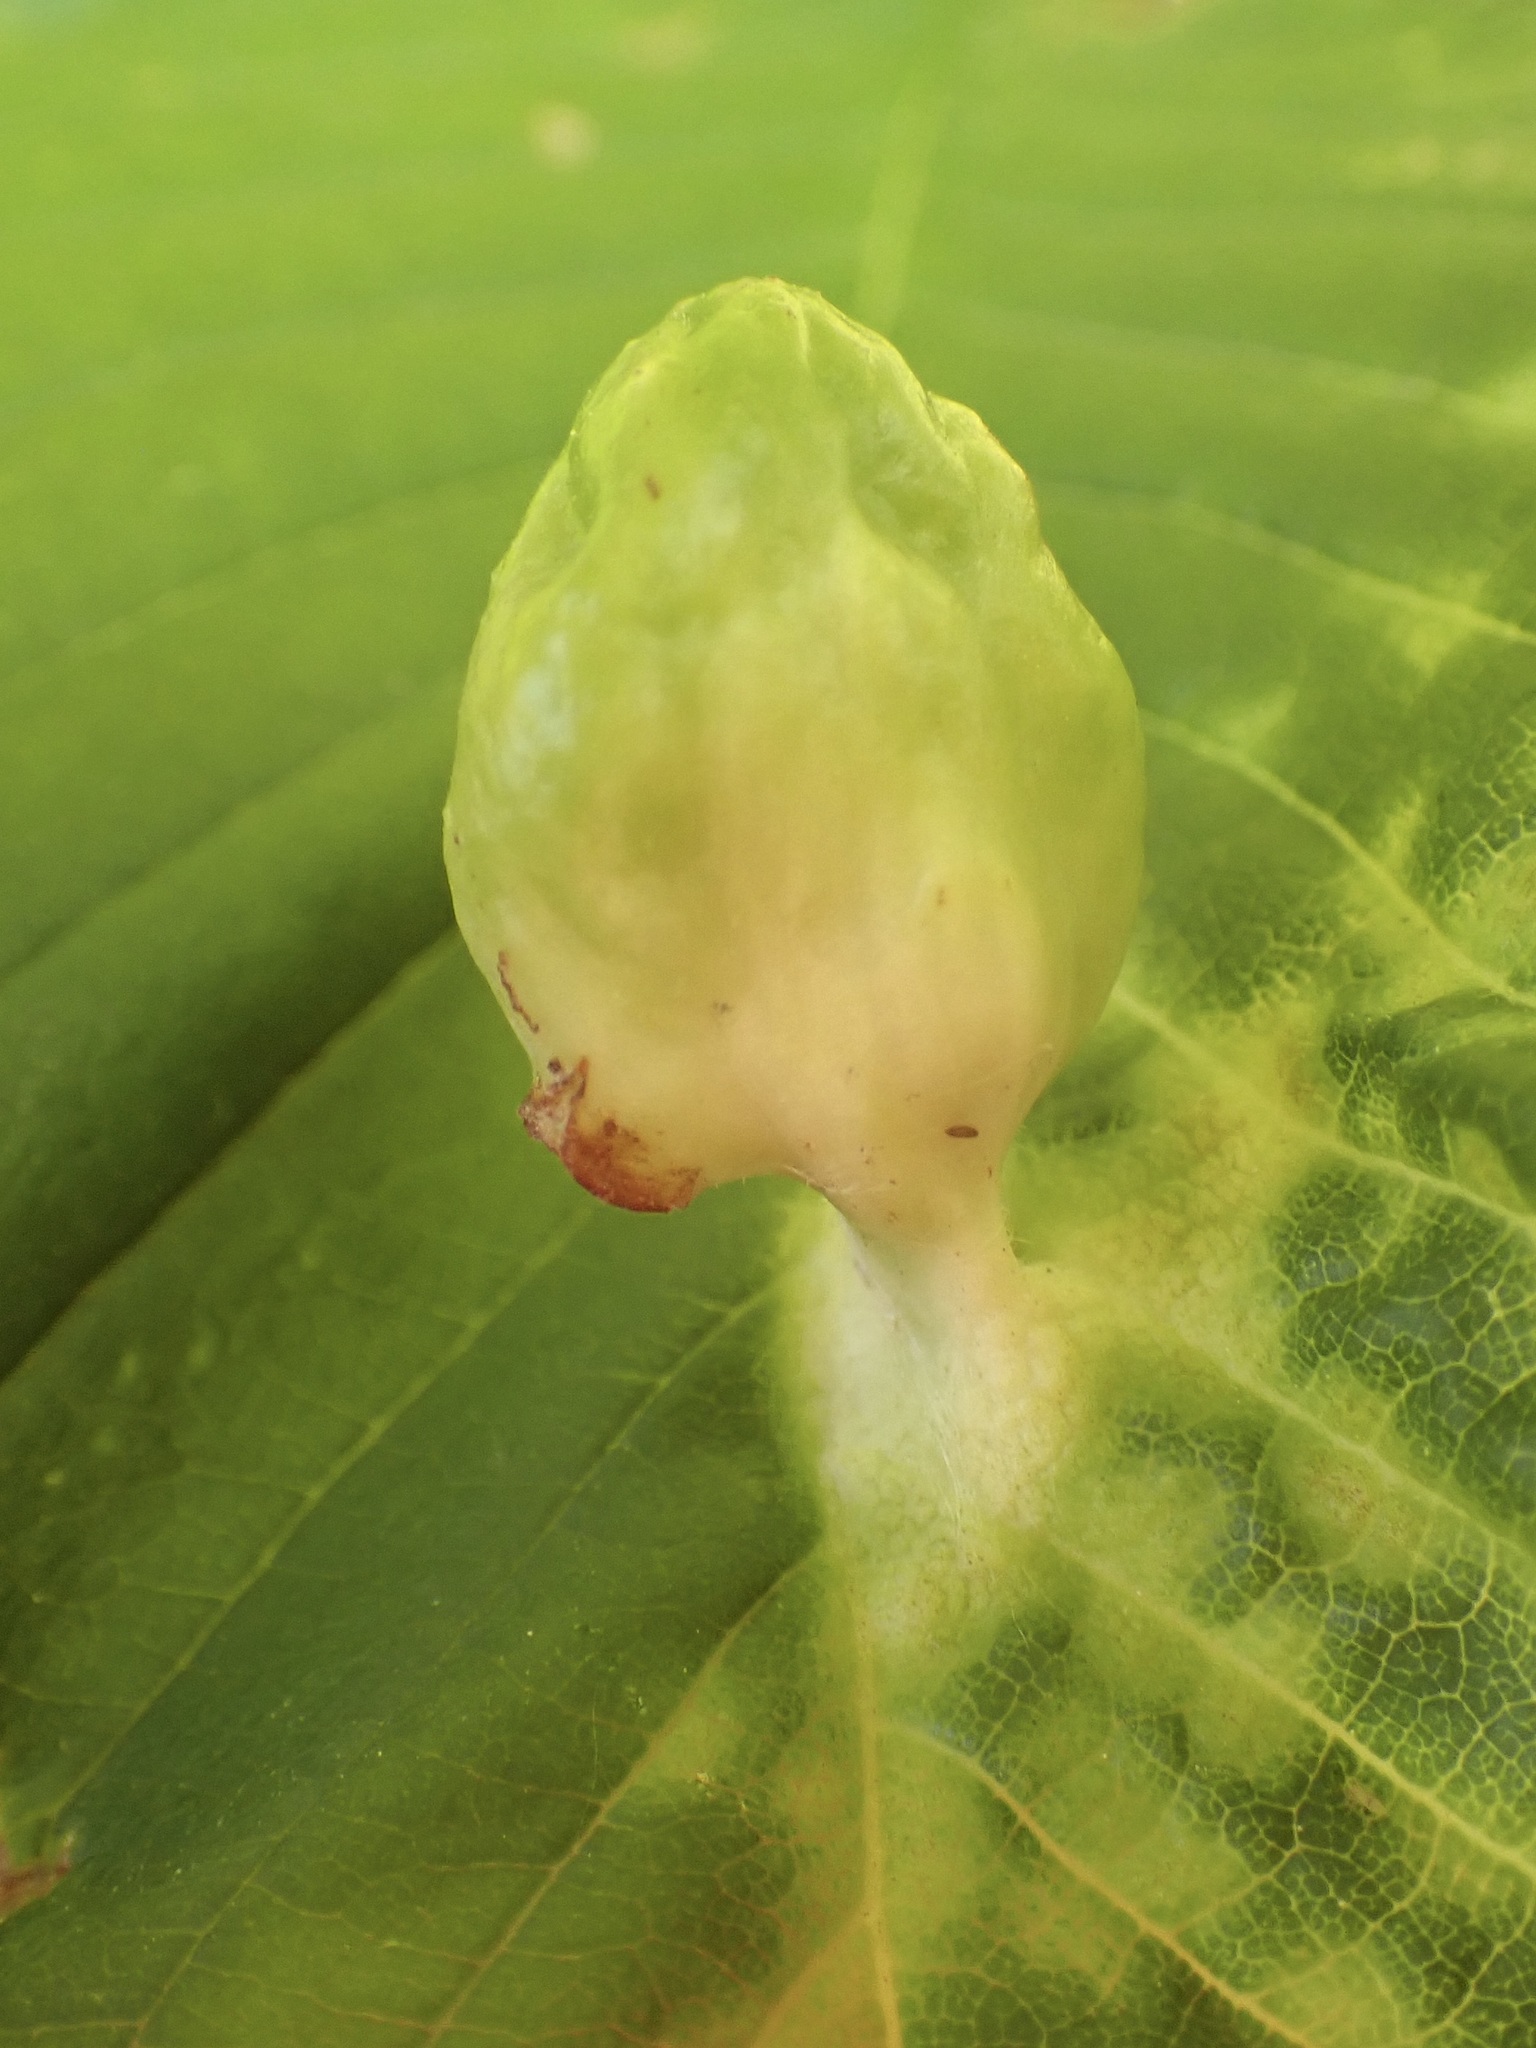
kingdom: Animalia
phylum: Arthropoda
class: Insecta
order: Hemiptera
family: Aphididae
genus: Tetraneura
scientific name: Tetraneura ulmi
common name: Aphid
